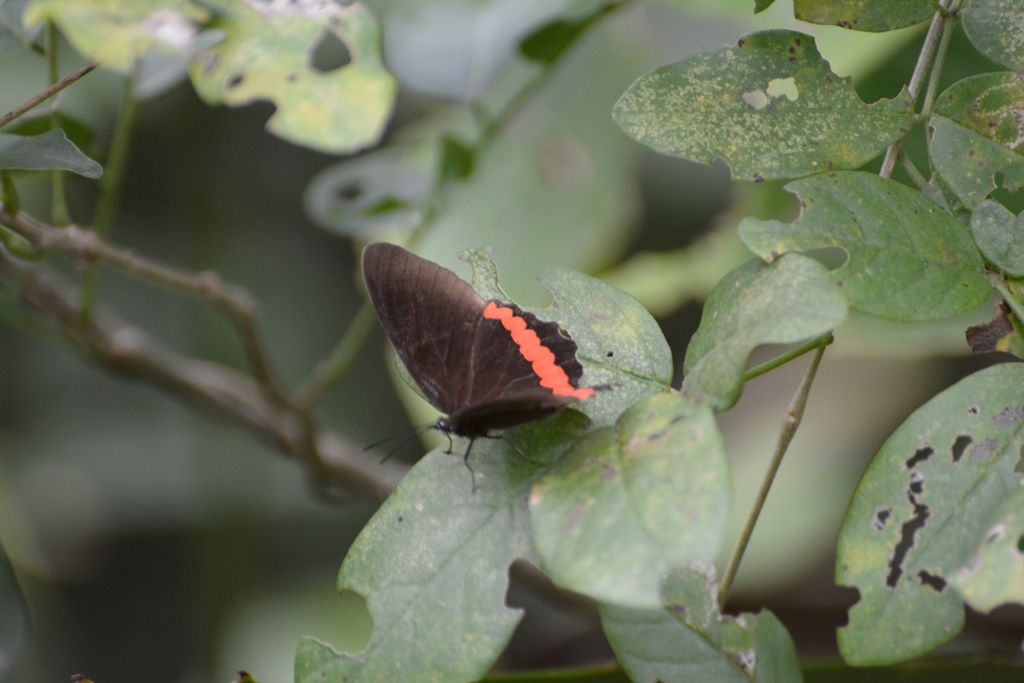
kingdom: Animalia
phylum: Arthropoda
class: Insecta
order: Lepidoptera
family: Nymphalidae
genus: Biblis
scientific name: Biblis aganisa
